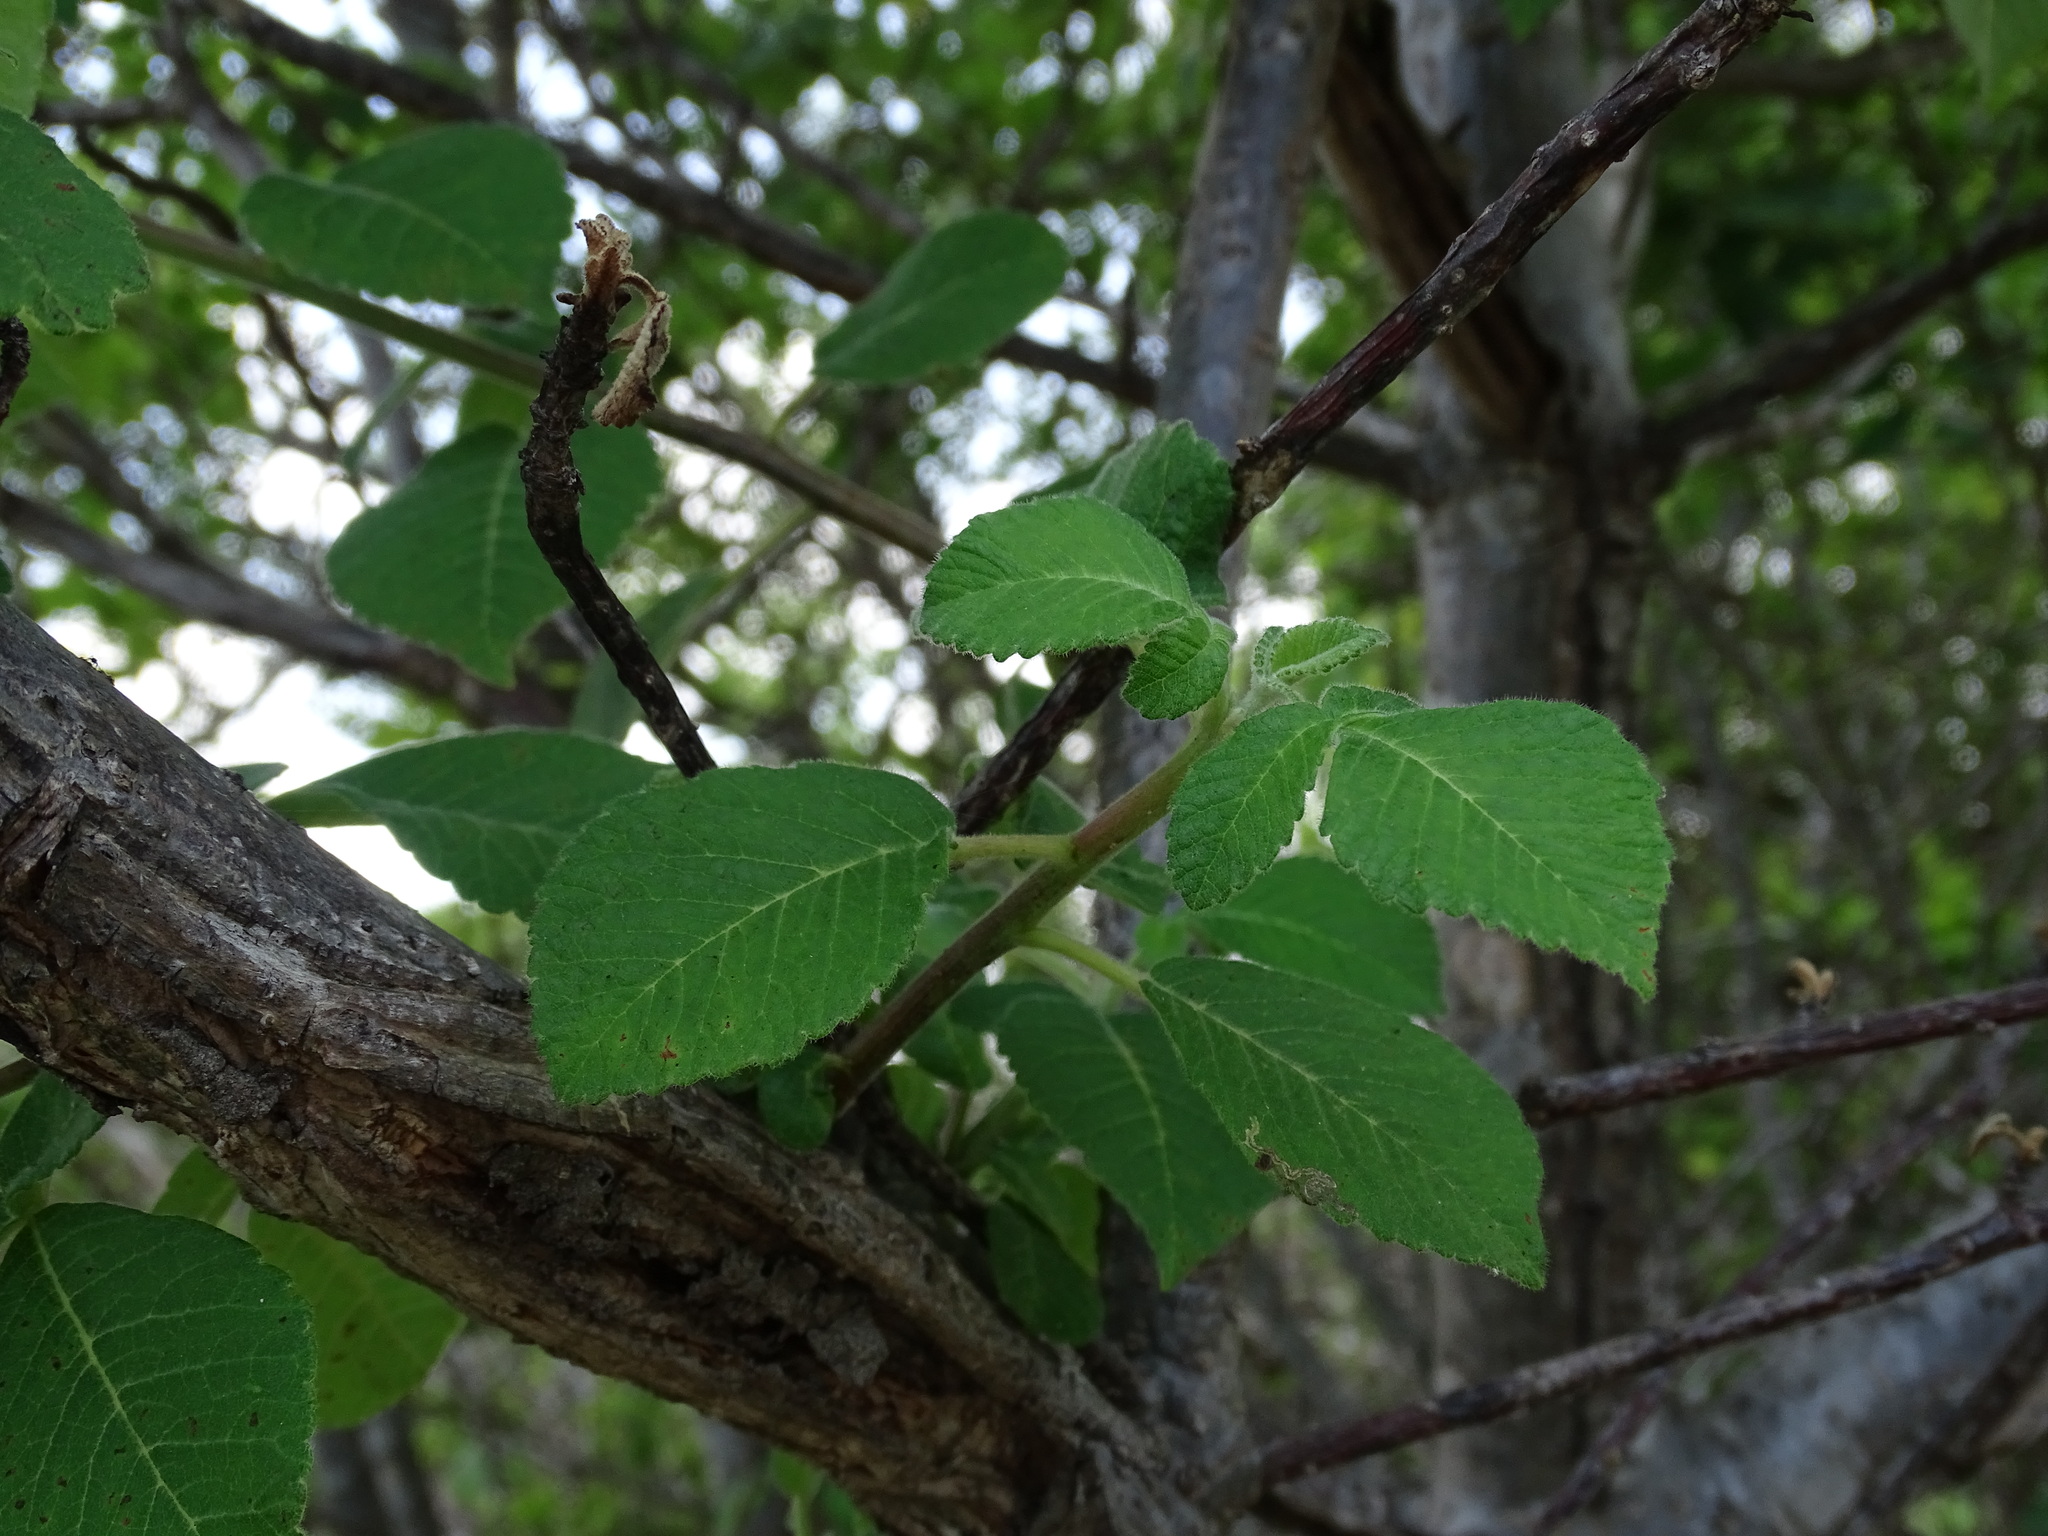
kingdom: Plantae
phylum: Tracheophyta
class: Magnoliopsida
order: Sapindales
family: Anacardiaceae
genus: Amphipterygium
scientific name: Amphipterygium simplicifolium
